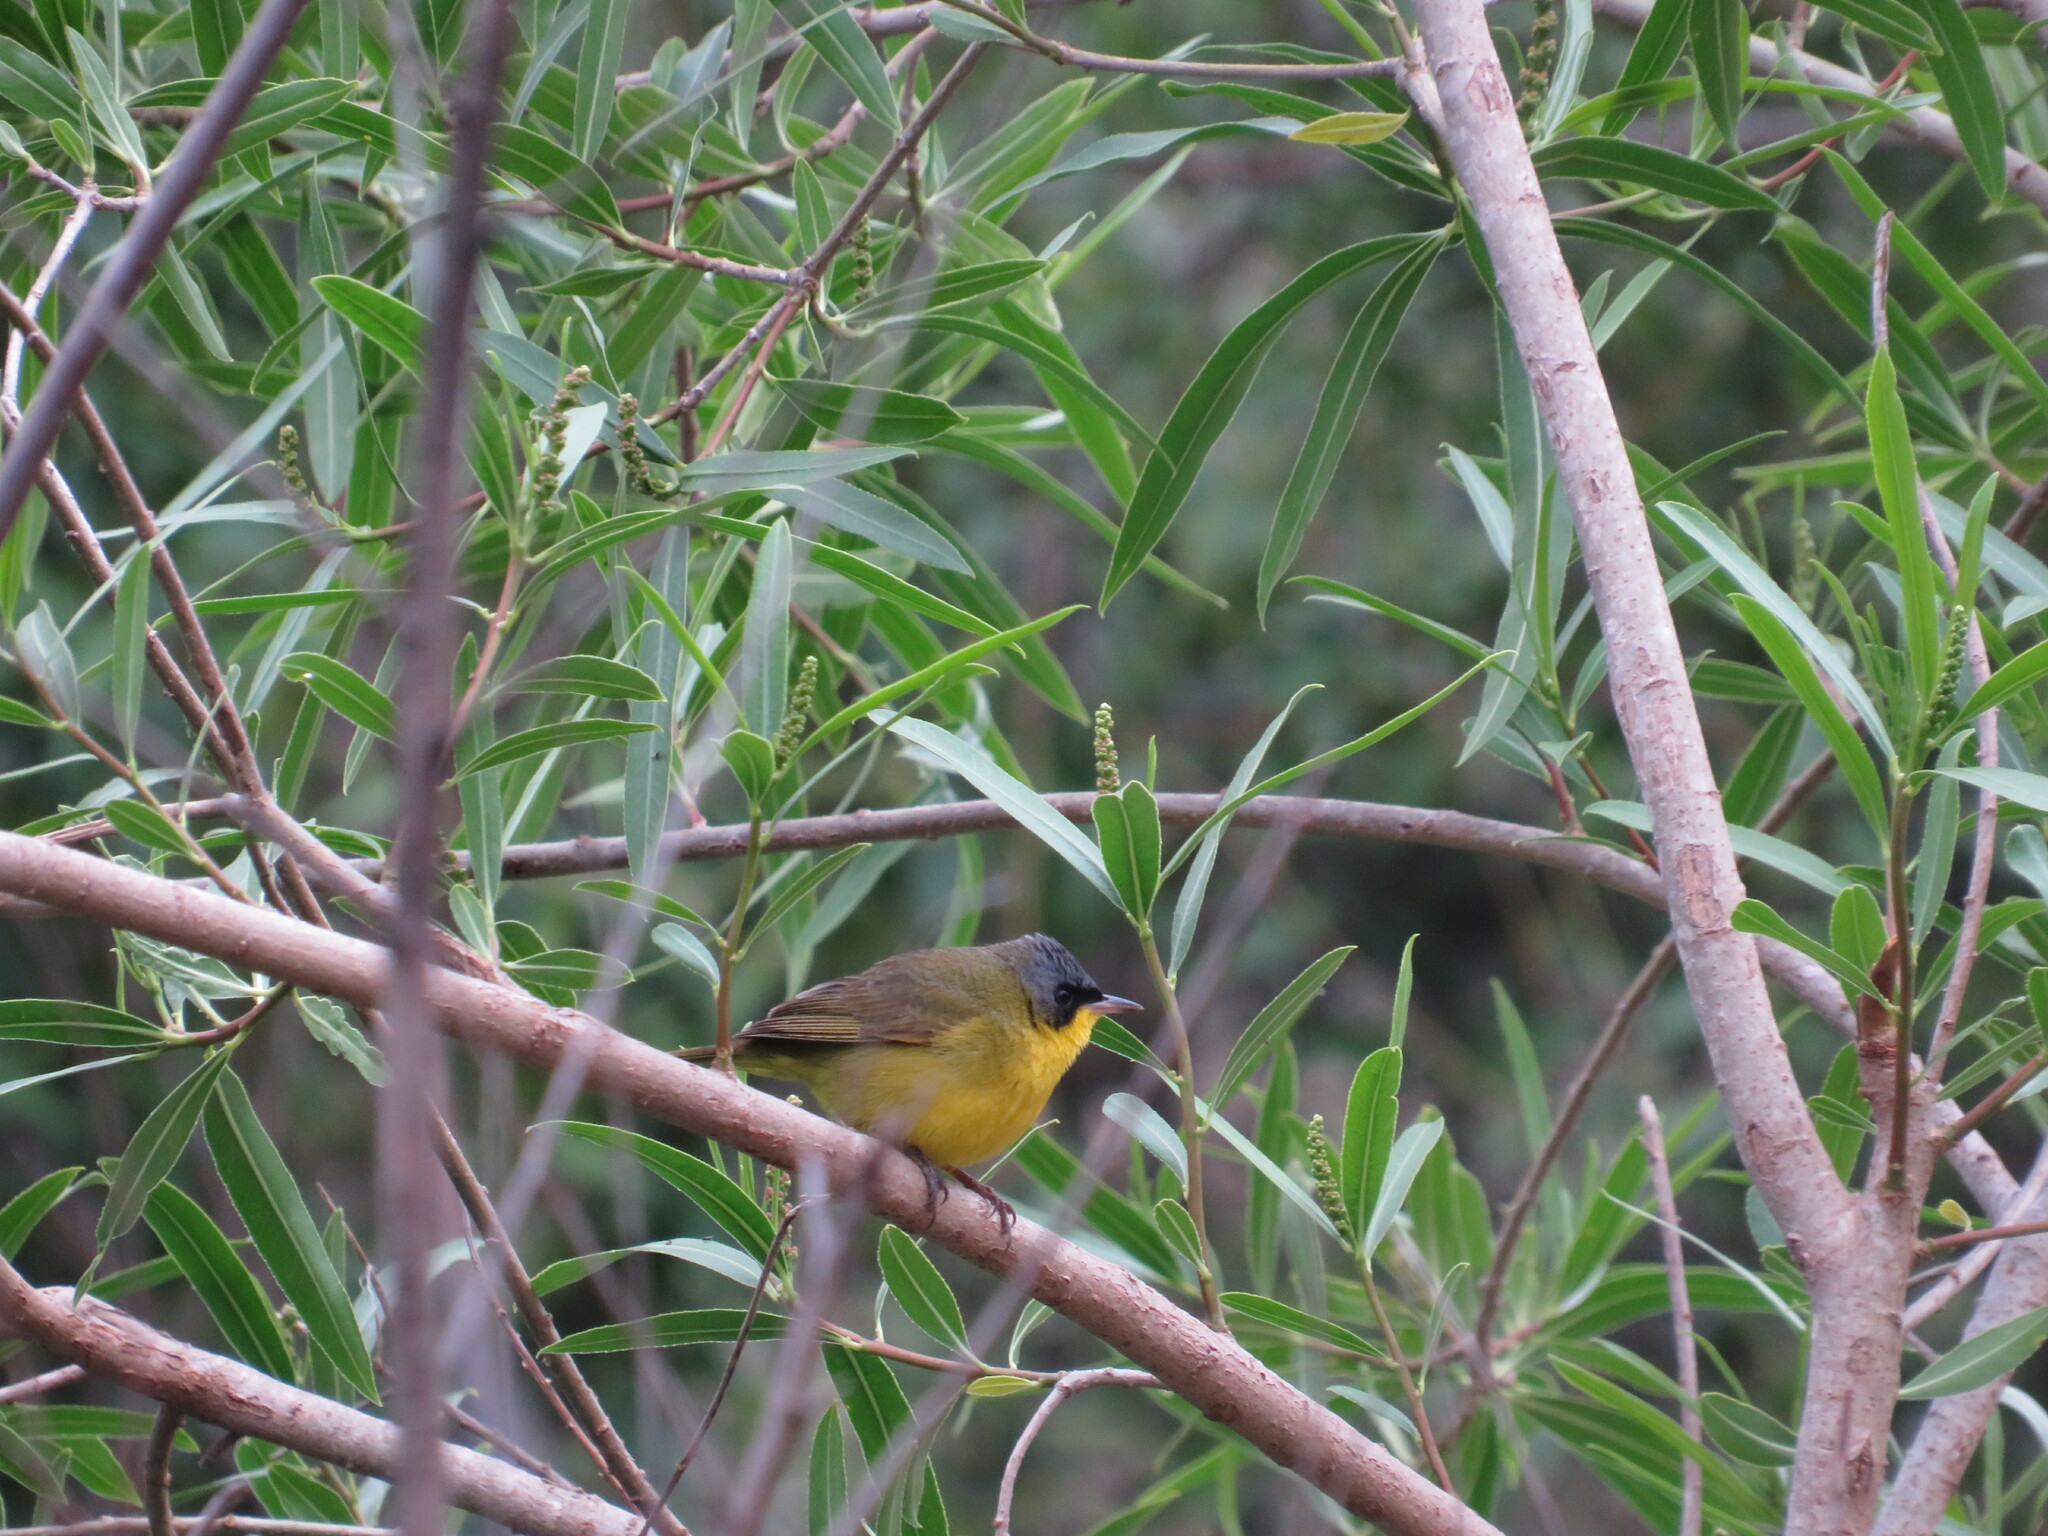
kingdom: Animalia
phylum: Chordata
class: Aves
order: Passeriformes
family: Parulidae
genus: Geothlypis
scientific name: Geothlypis velata
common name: Southern yellowthroat
